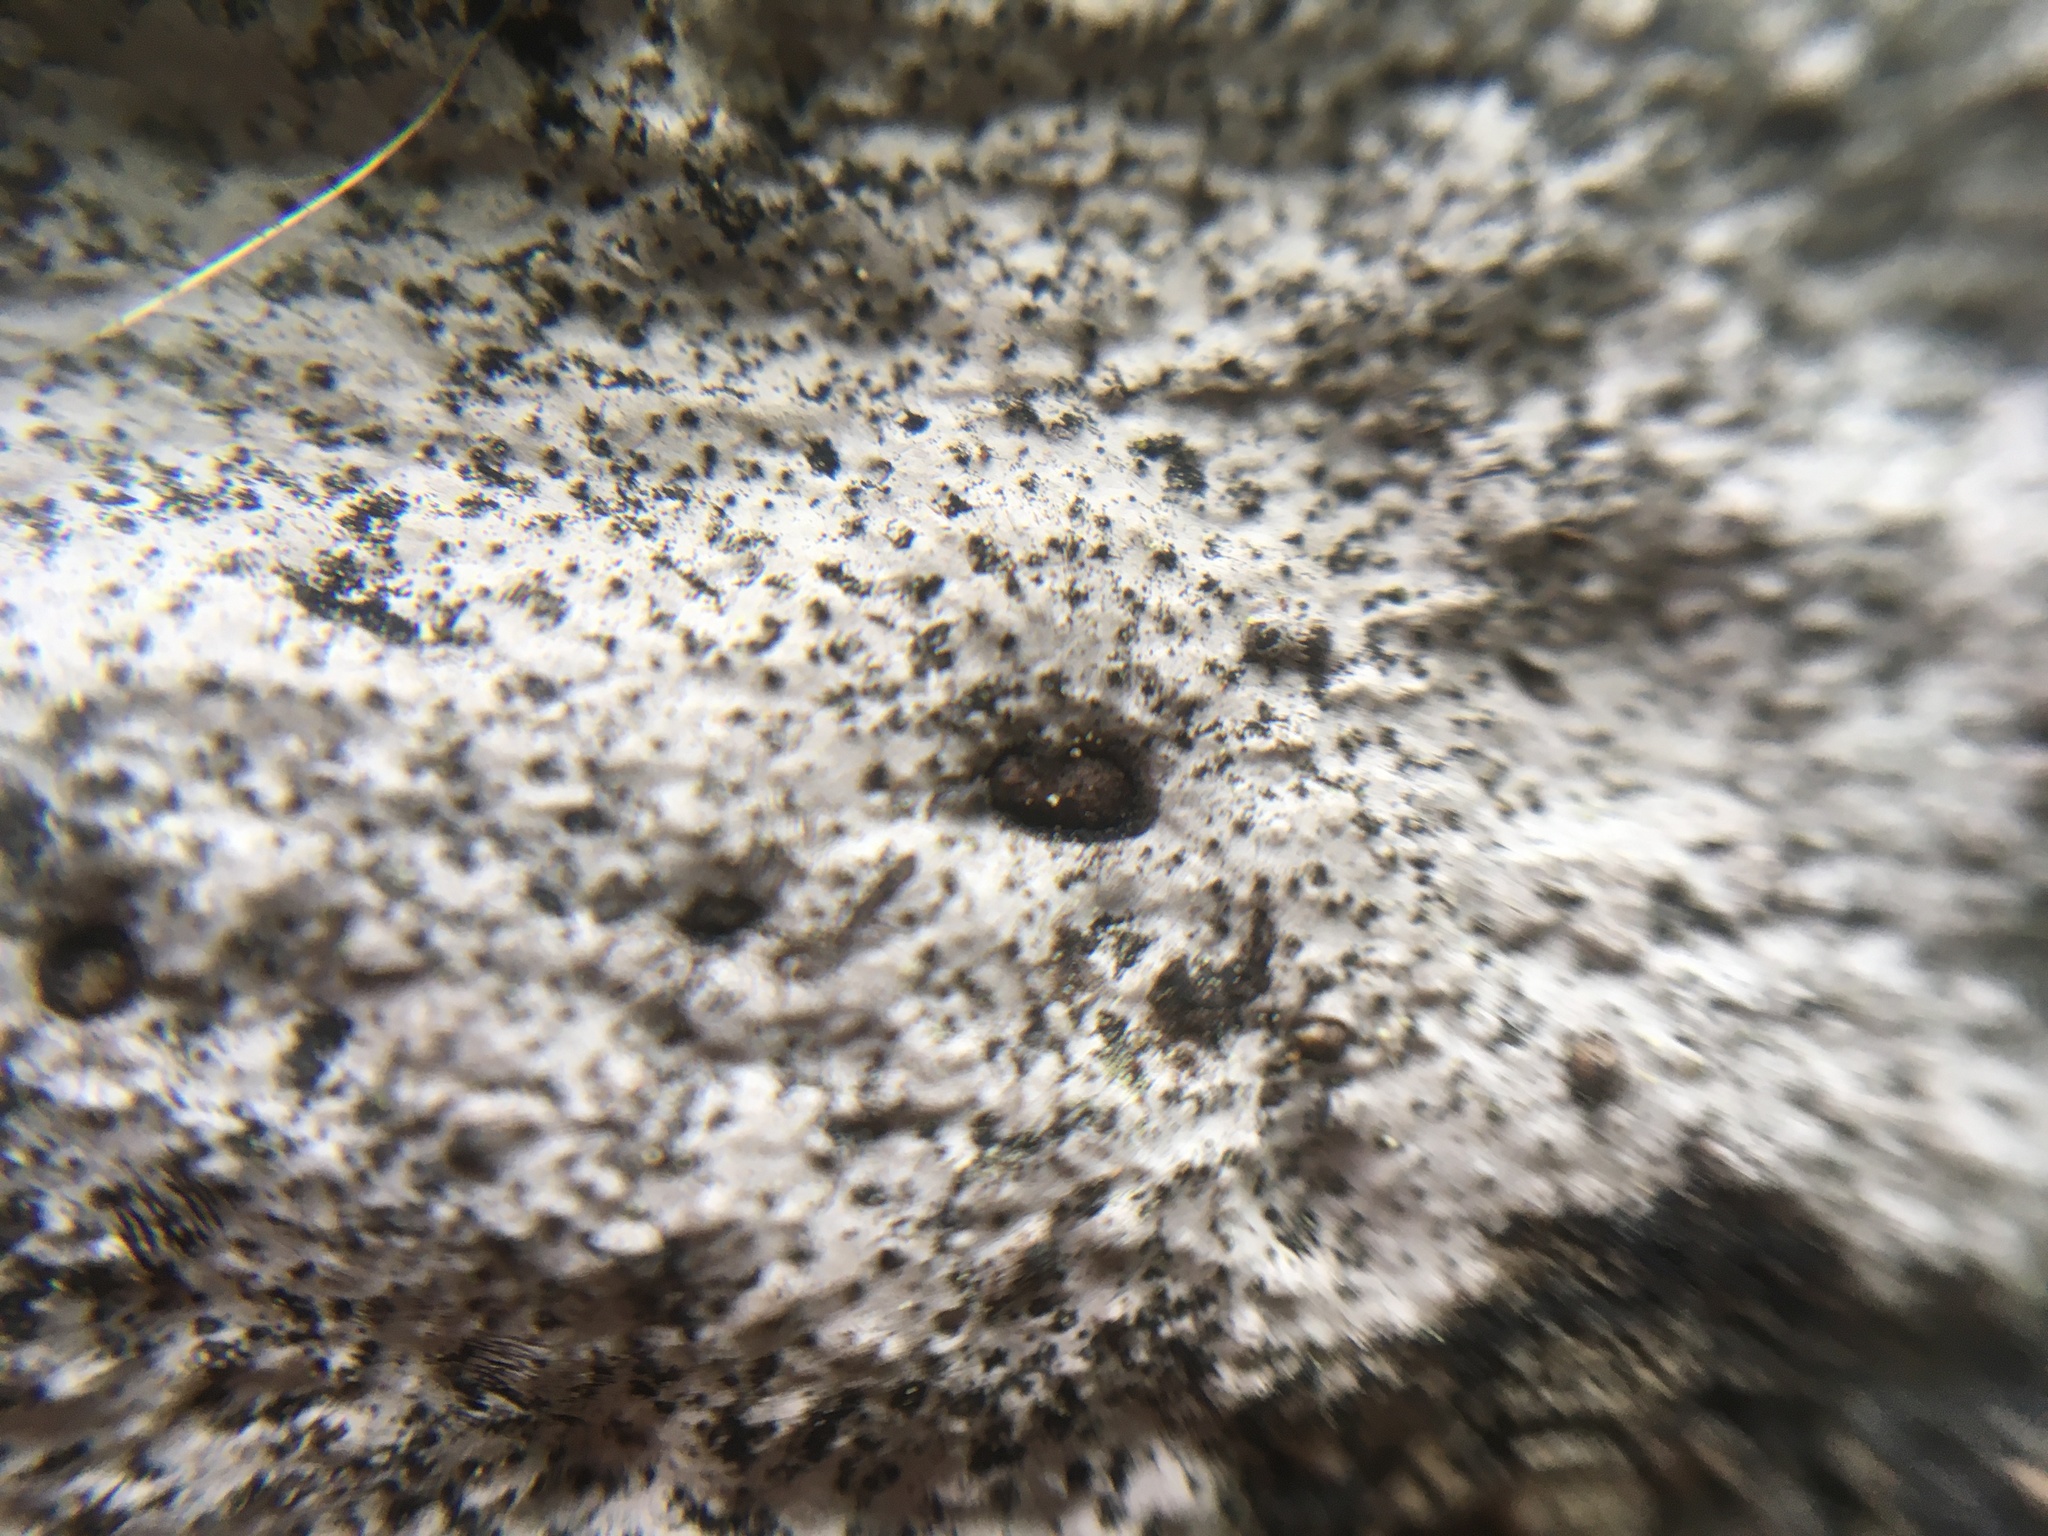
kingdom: Fungi
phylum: Ascomycota
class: Sordariomycetes
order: Xylariales
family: Graphostromataceae
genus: Biscogniauxia
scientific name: Biscogniauxia atropunctata
